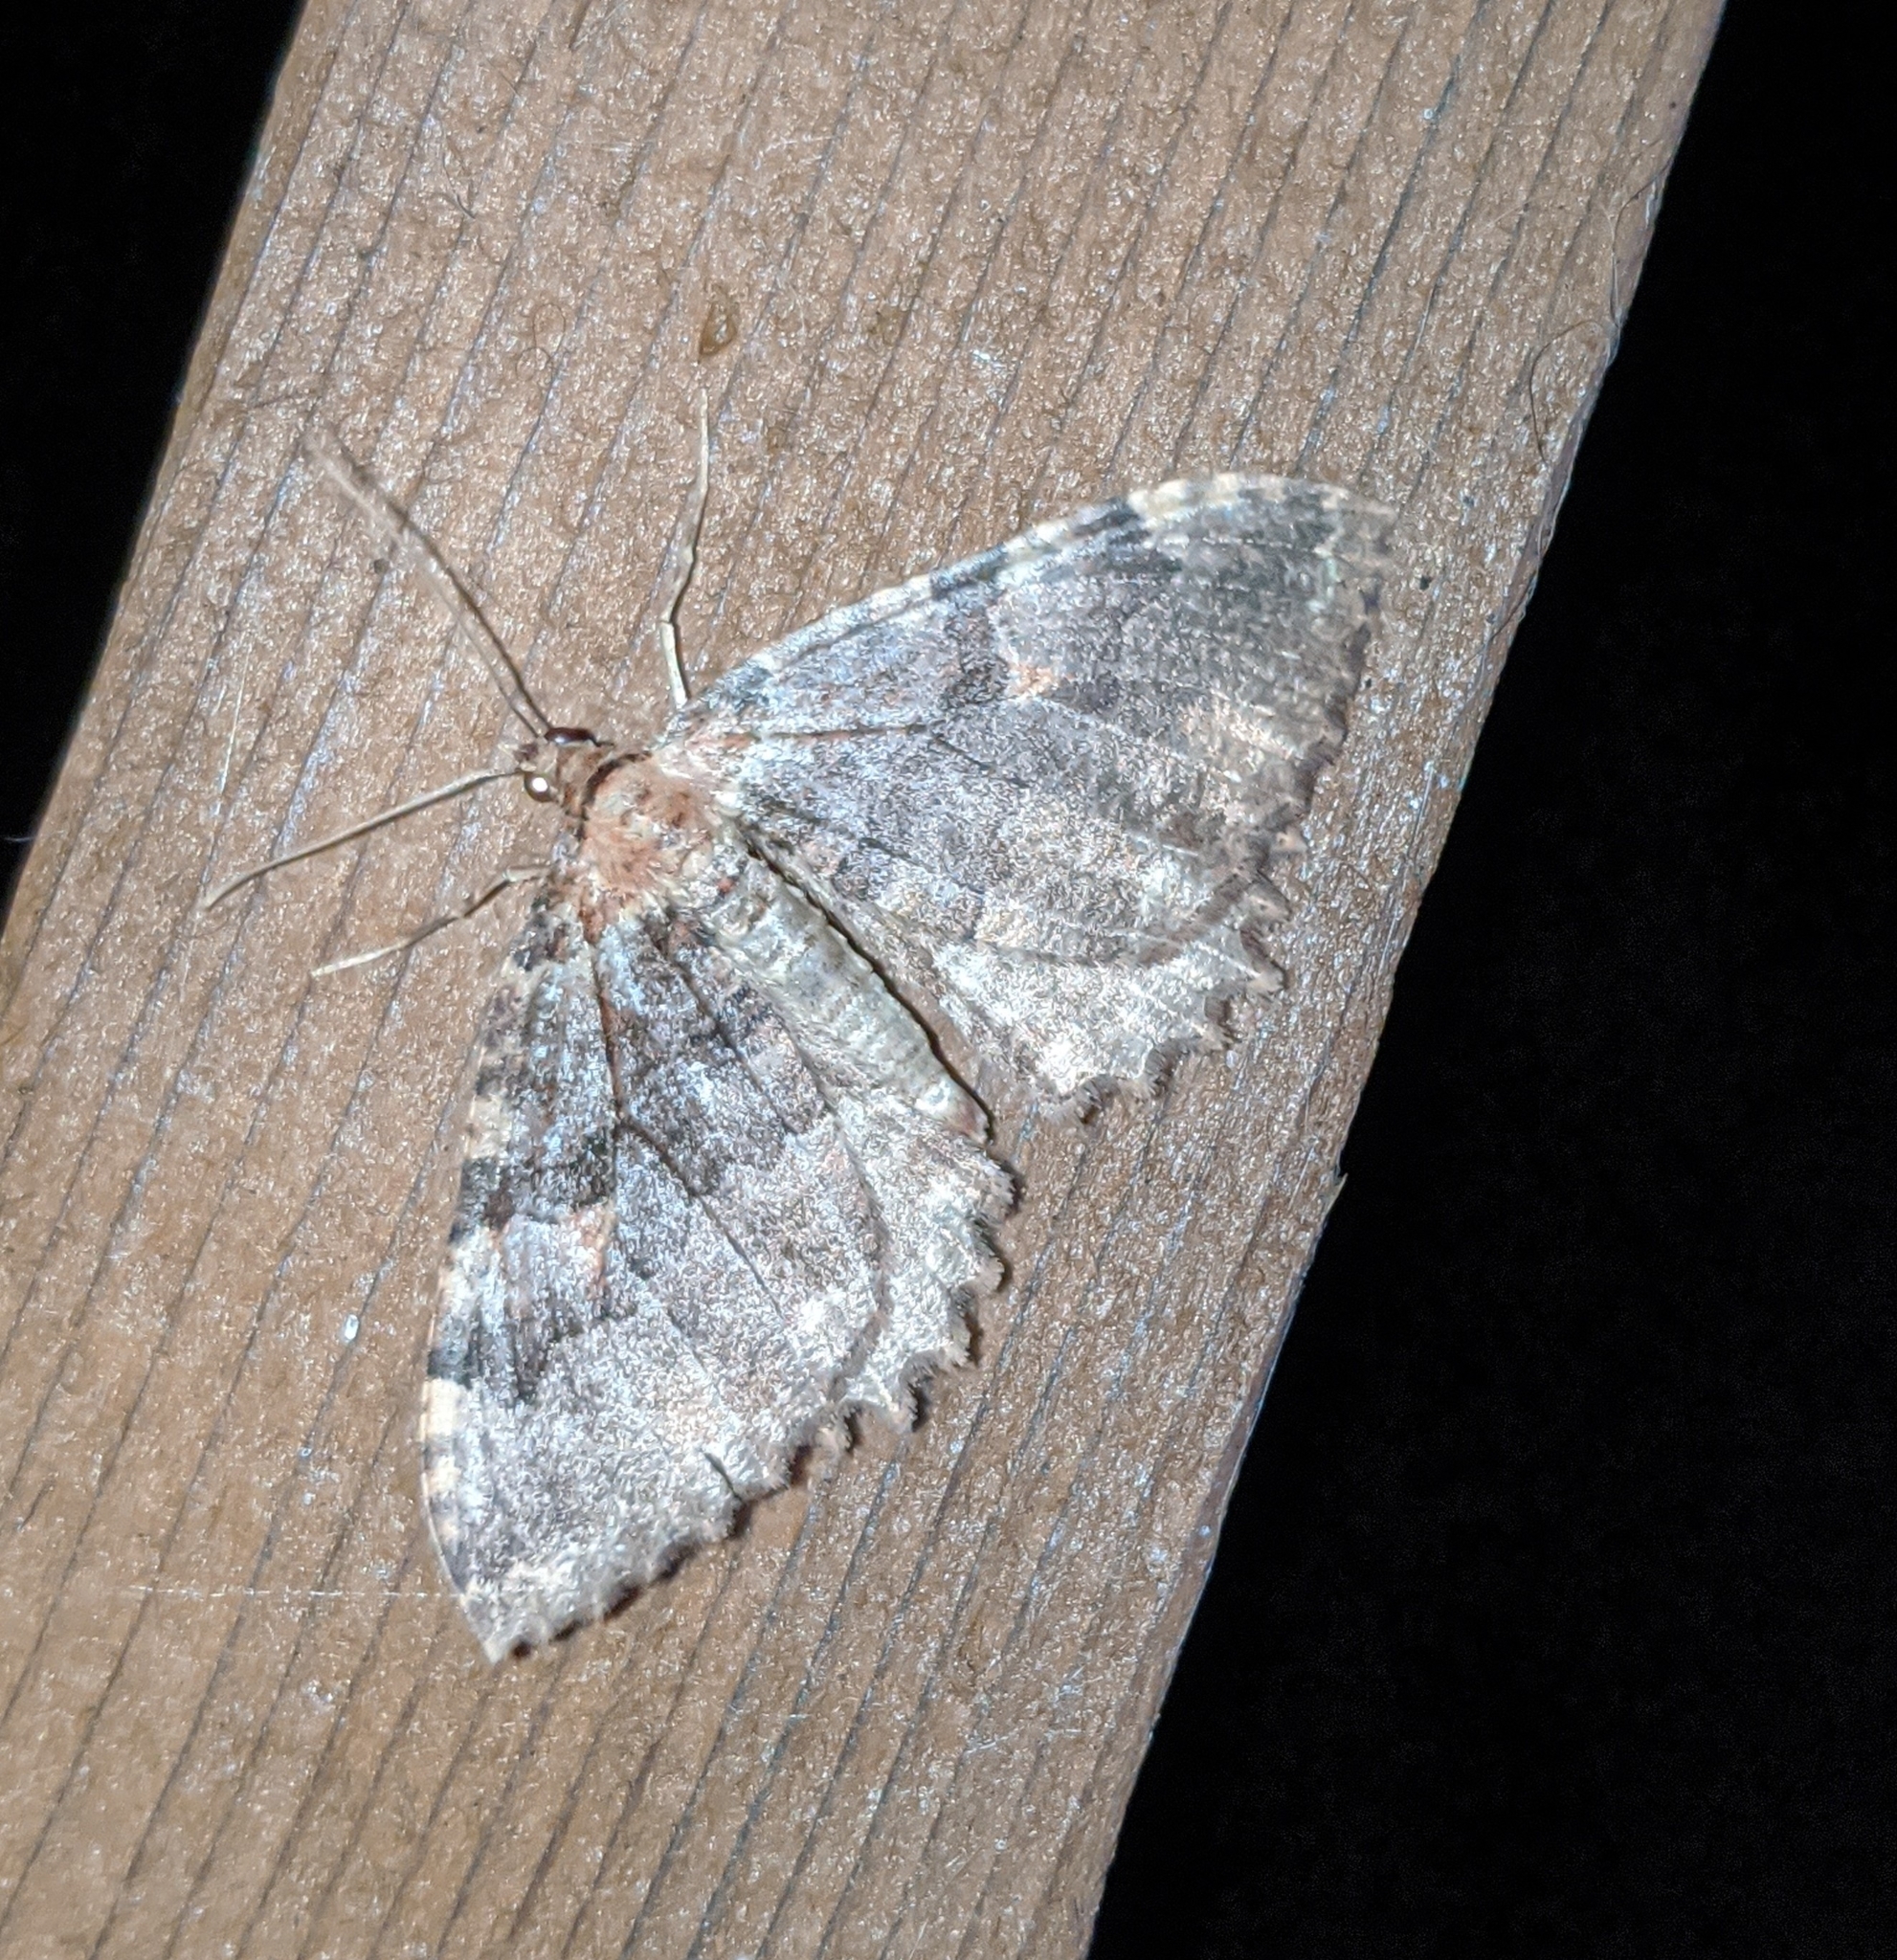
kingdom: Animalia
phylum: Arthropoda
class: Insecta
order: Lepidoptera
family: Geometridae
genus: Triphosa
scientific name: Triphosa haesitata
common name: Tissue moth
